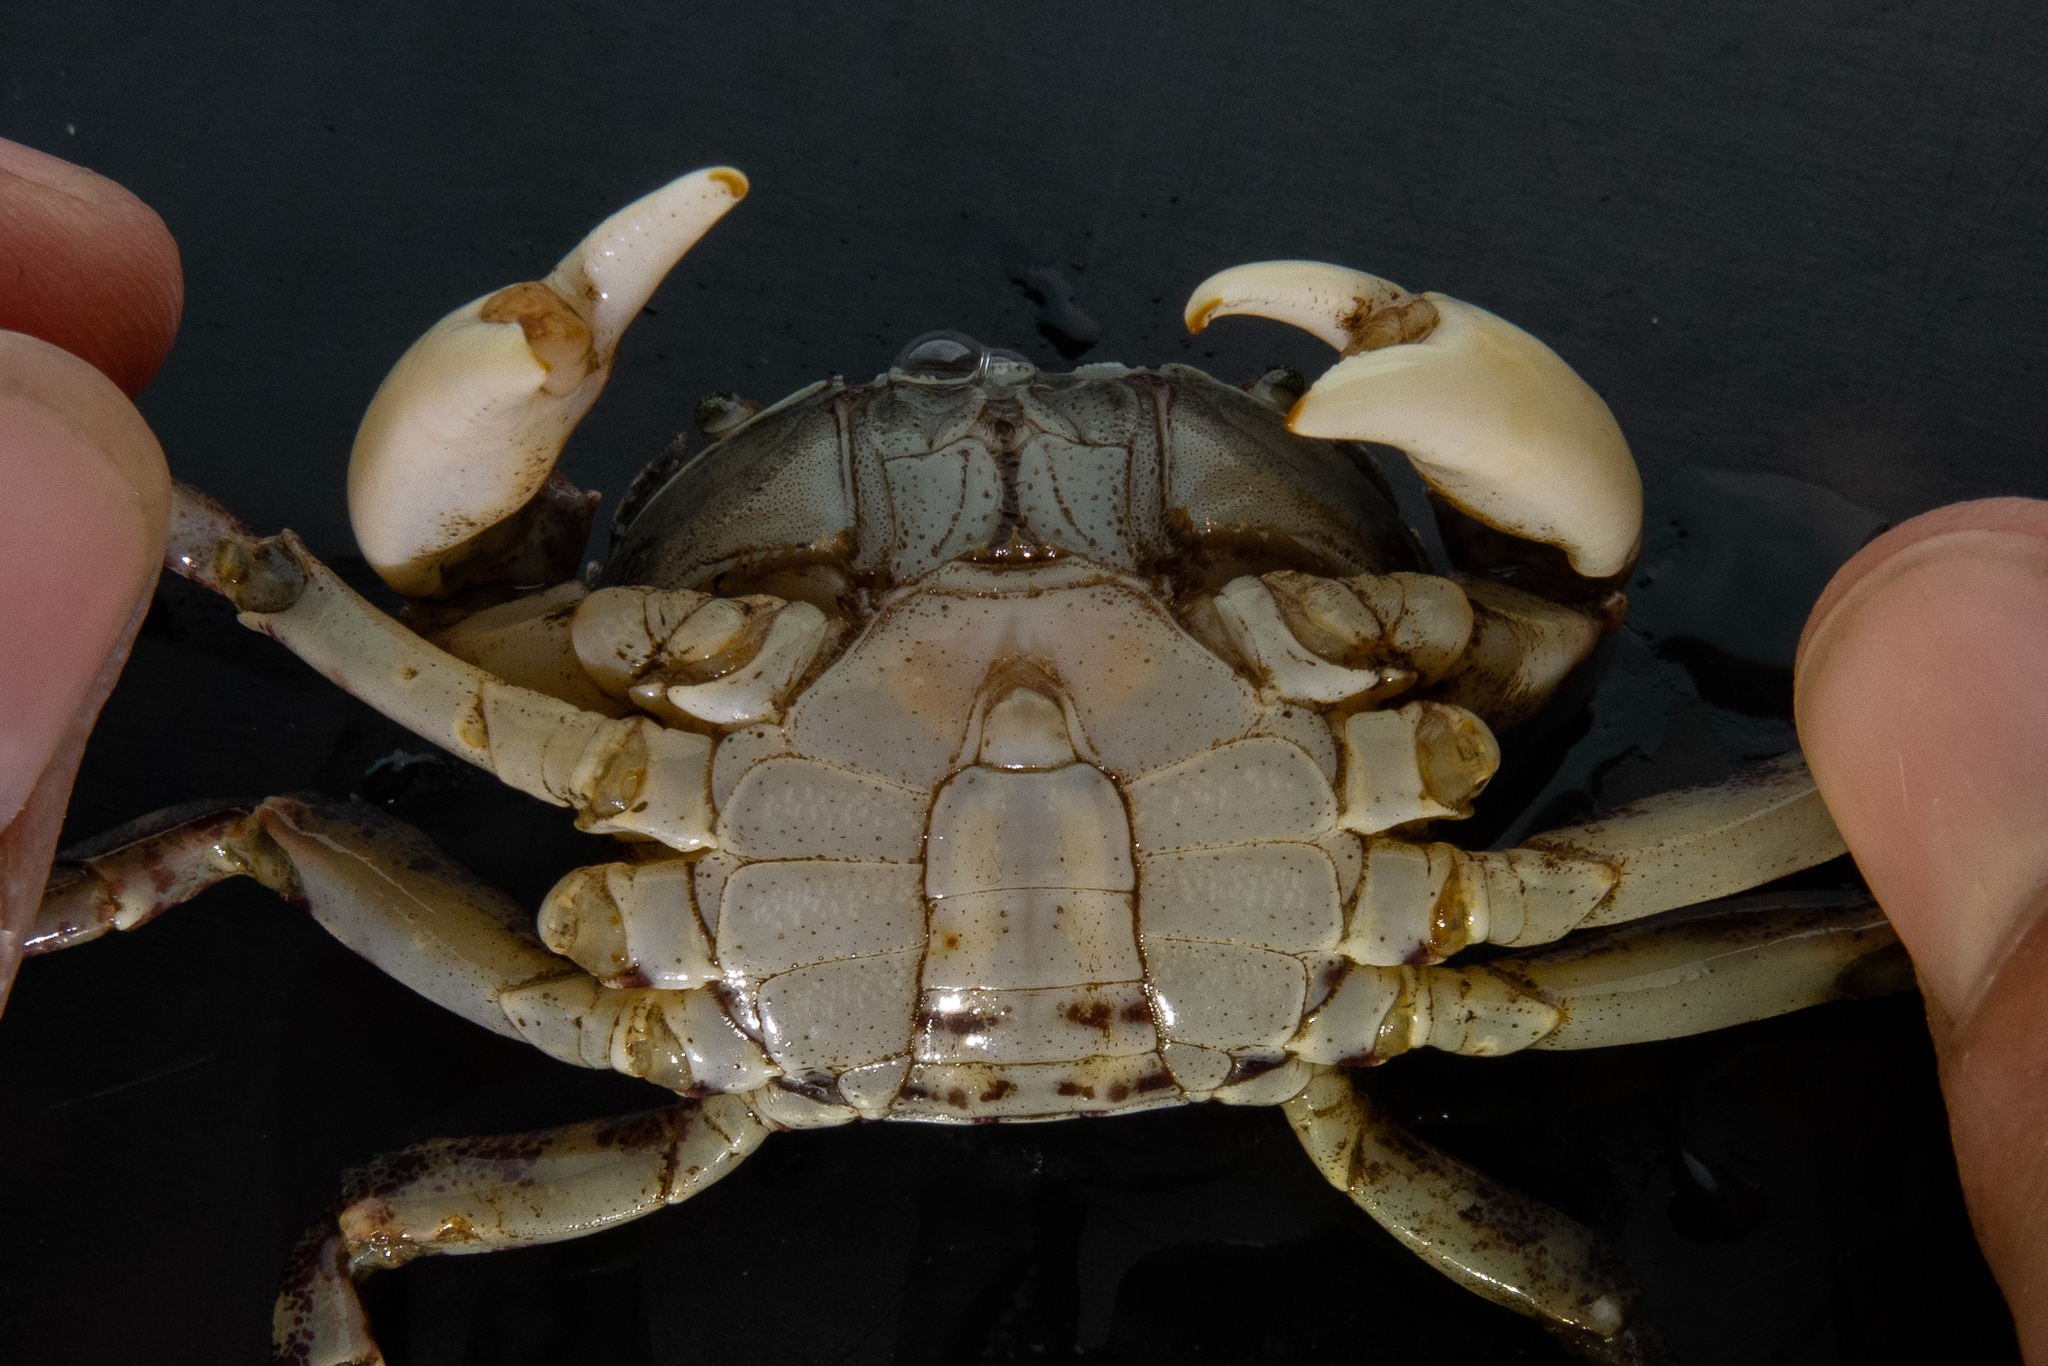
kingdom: Animalia
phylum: Arthropoda
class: Malacostraca
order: Decapoda
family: Varunidae
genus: Hemigrapsus
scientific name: Hemigrapsus sanguineus
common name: Asian shore crab
